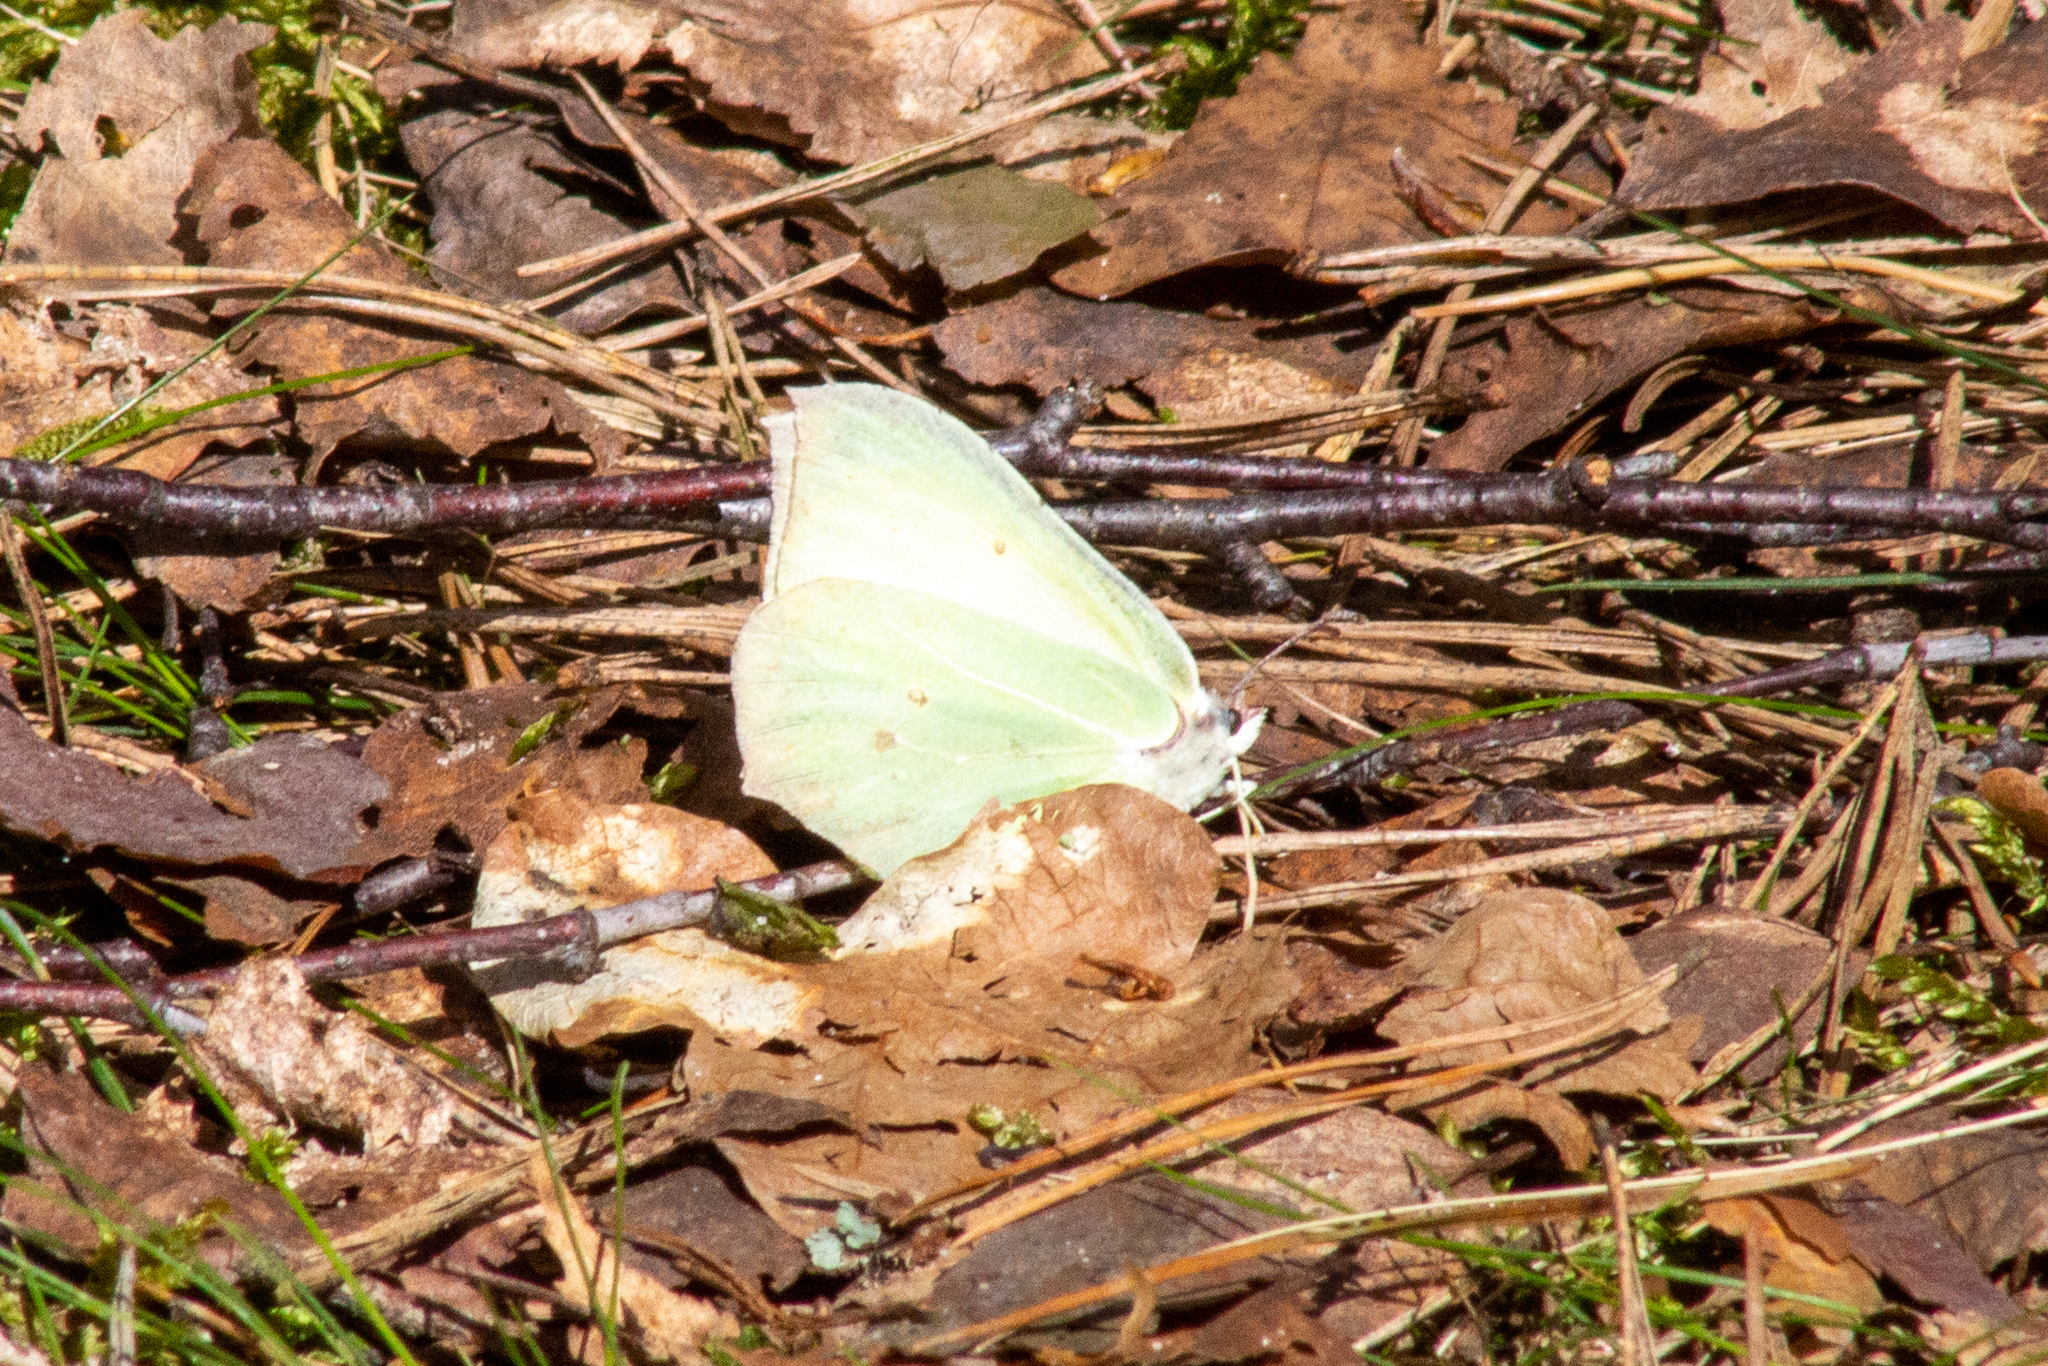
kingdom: Animalia
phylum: Arthropoda
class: Insecta
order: Lepidoptera
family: Pieridae
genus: Gonepteryx
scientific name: Gonepteryx rhamni
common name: Brimstone
